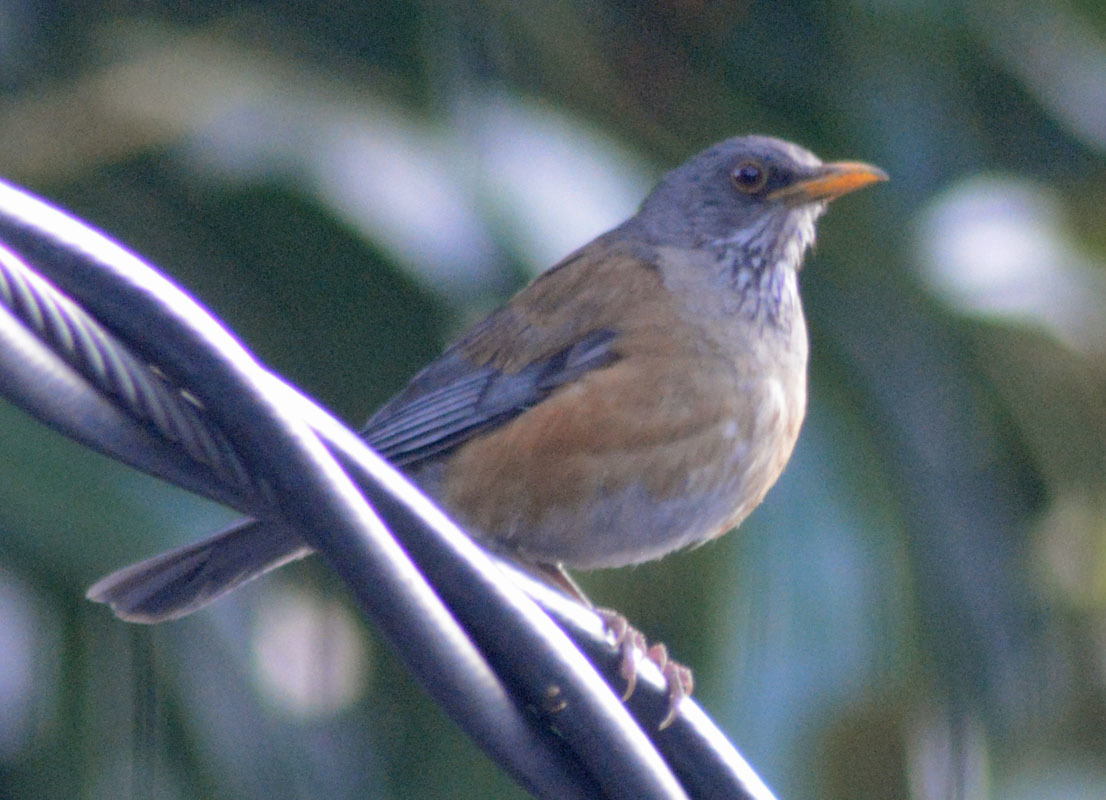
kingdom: Animalia
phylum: Chordata
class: Aves
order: Passeriformes
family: Turdidae
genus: Turdus
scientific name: Turdus rufopalliatus
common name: Rufous-backed robin
